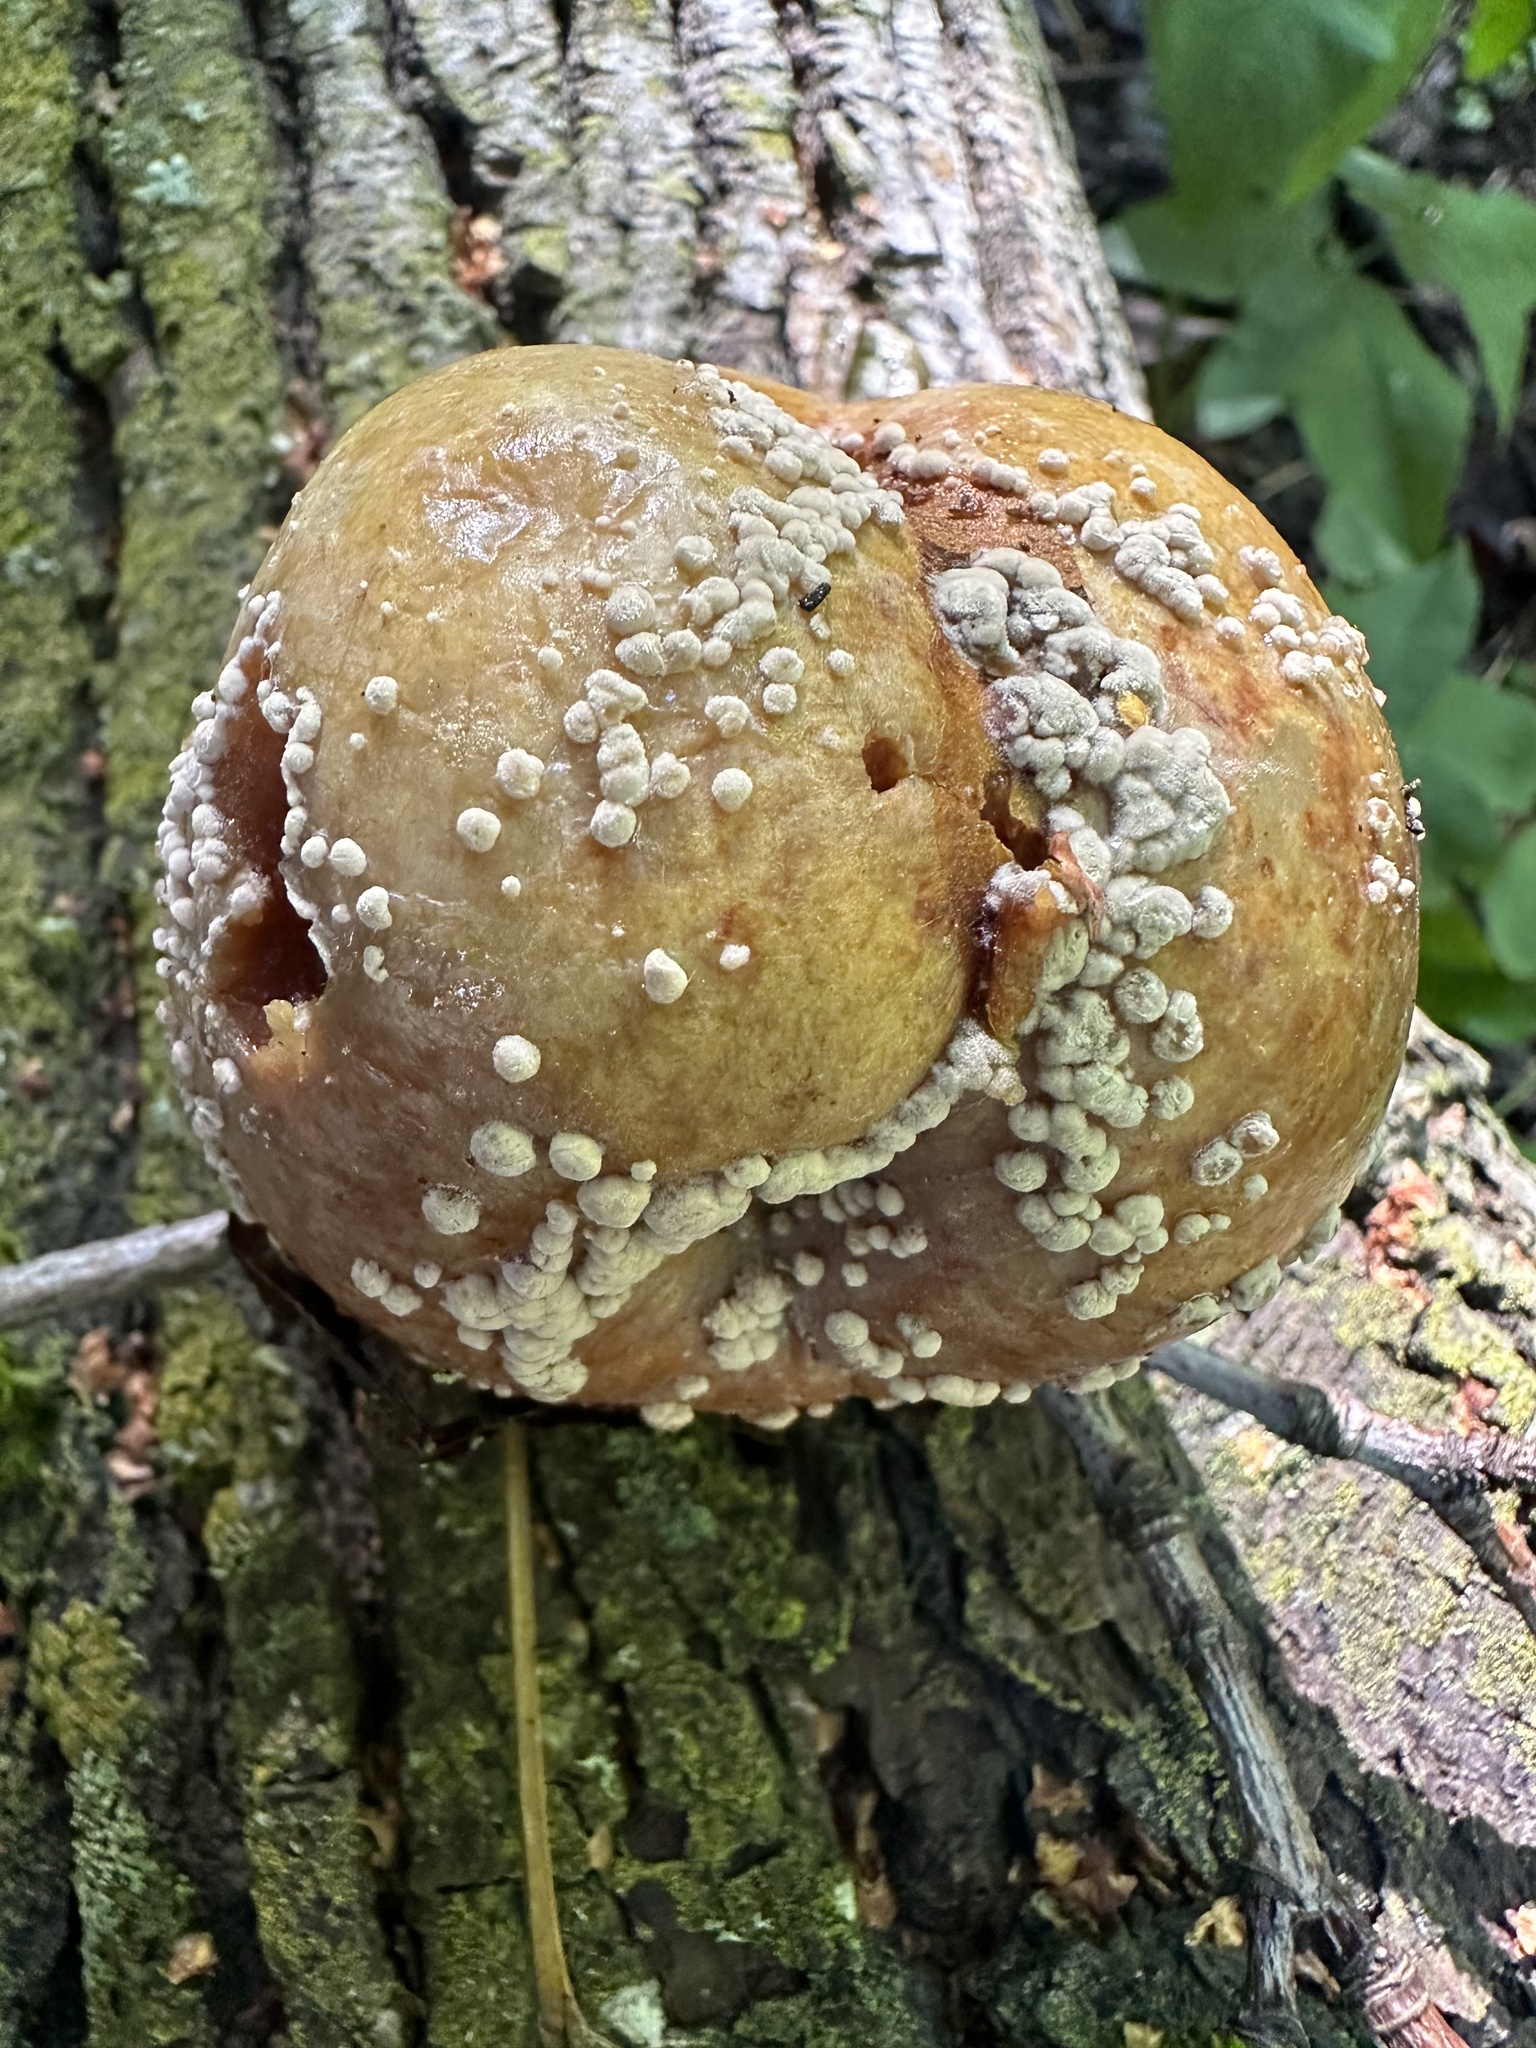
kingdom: Fungi
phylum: Ascomycota
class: Leotiomycetes
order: Helotiales
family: Sclerotiniaceae
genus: Monilinia
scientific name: Monilinia fructigena
